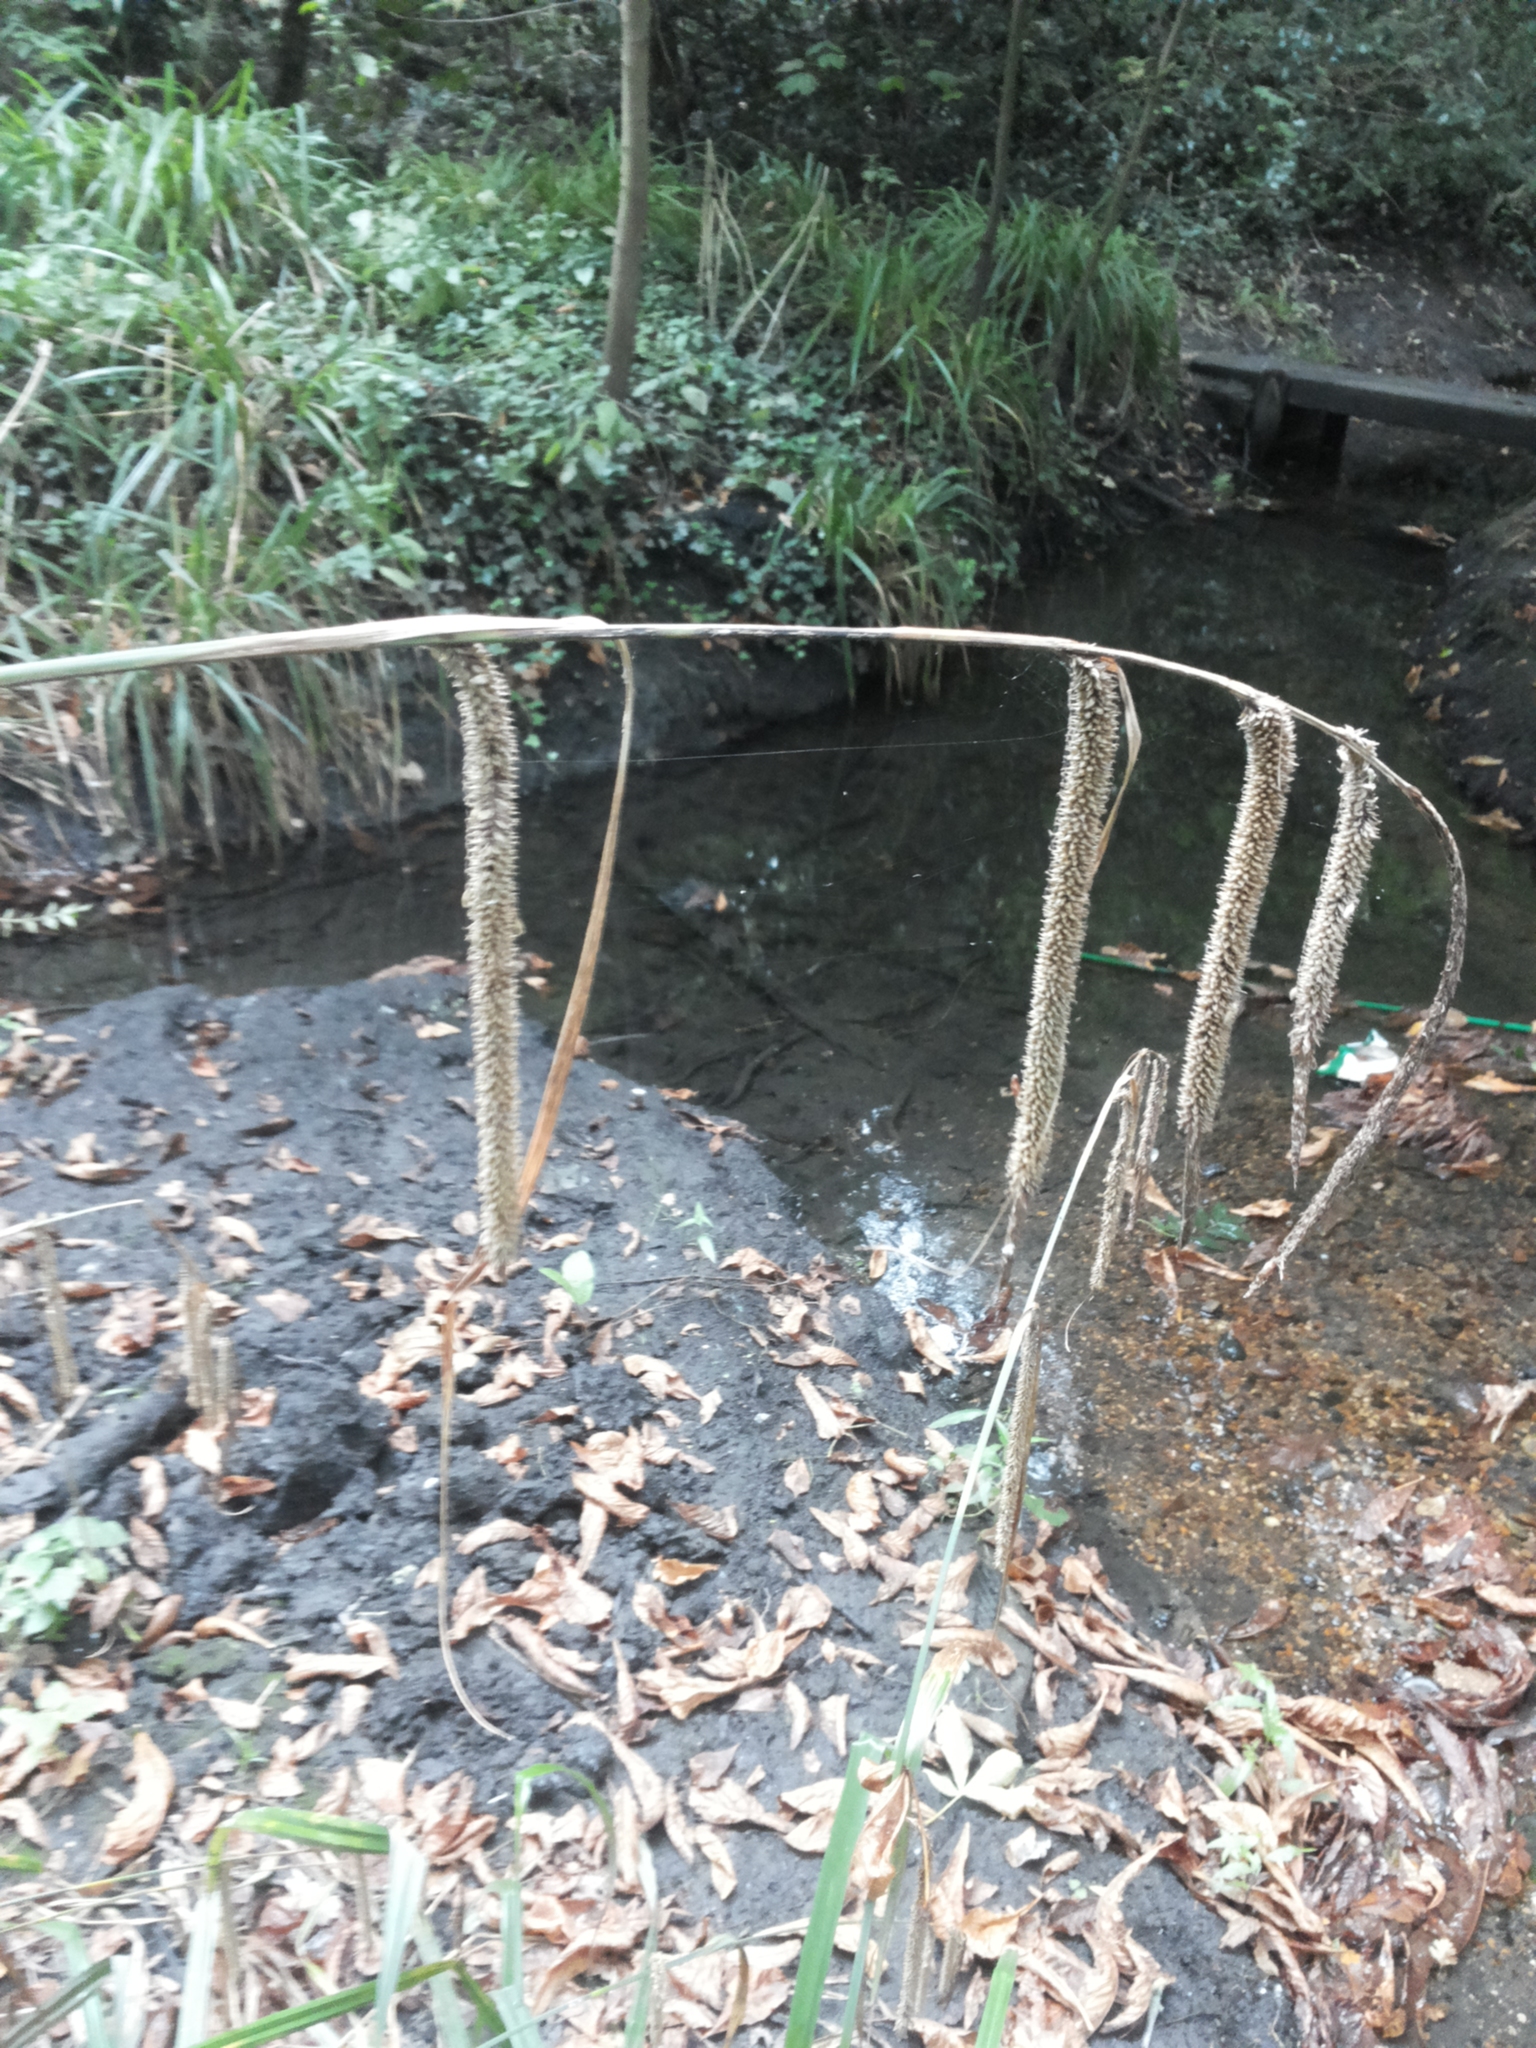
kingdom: Plantae
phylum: Tracheophyta
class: Liliopsida
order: Poales
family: Cyperaceae
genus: Carex
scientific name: Carex pendula
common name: Pendulous sedge
